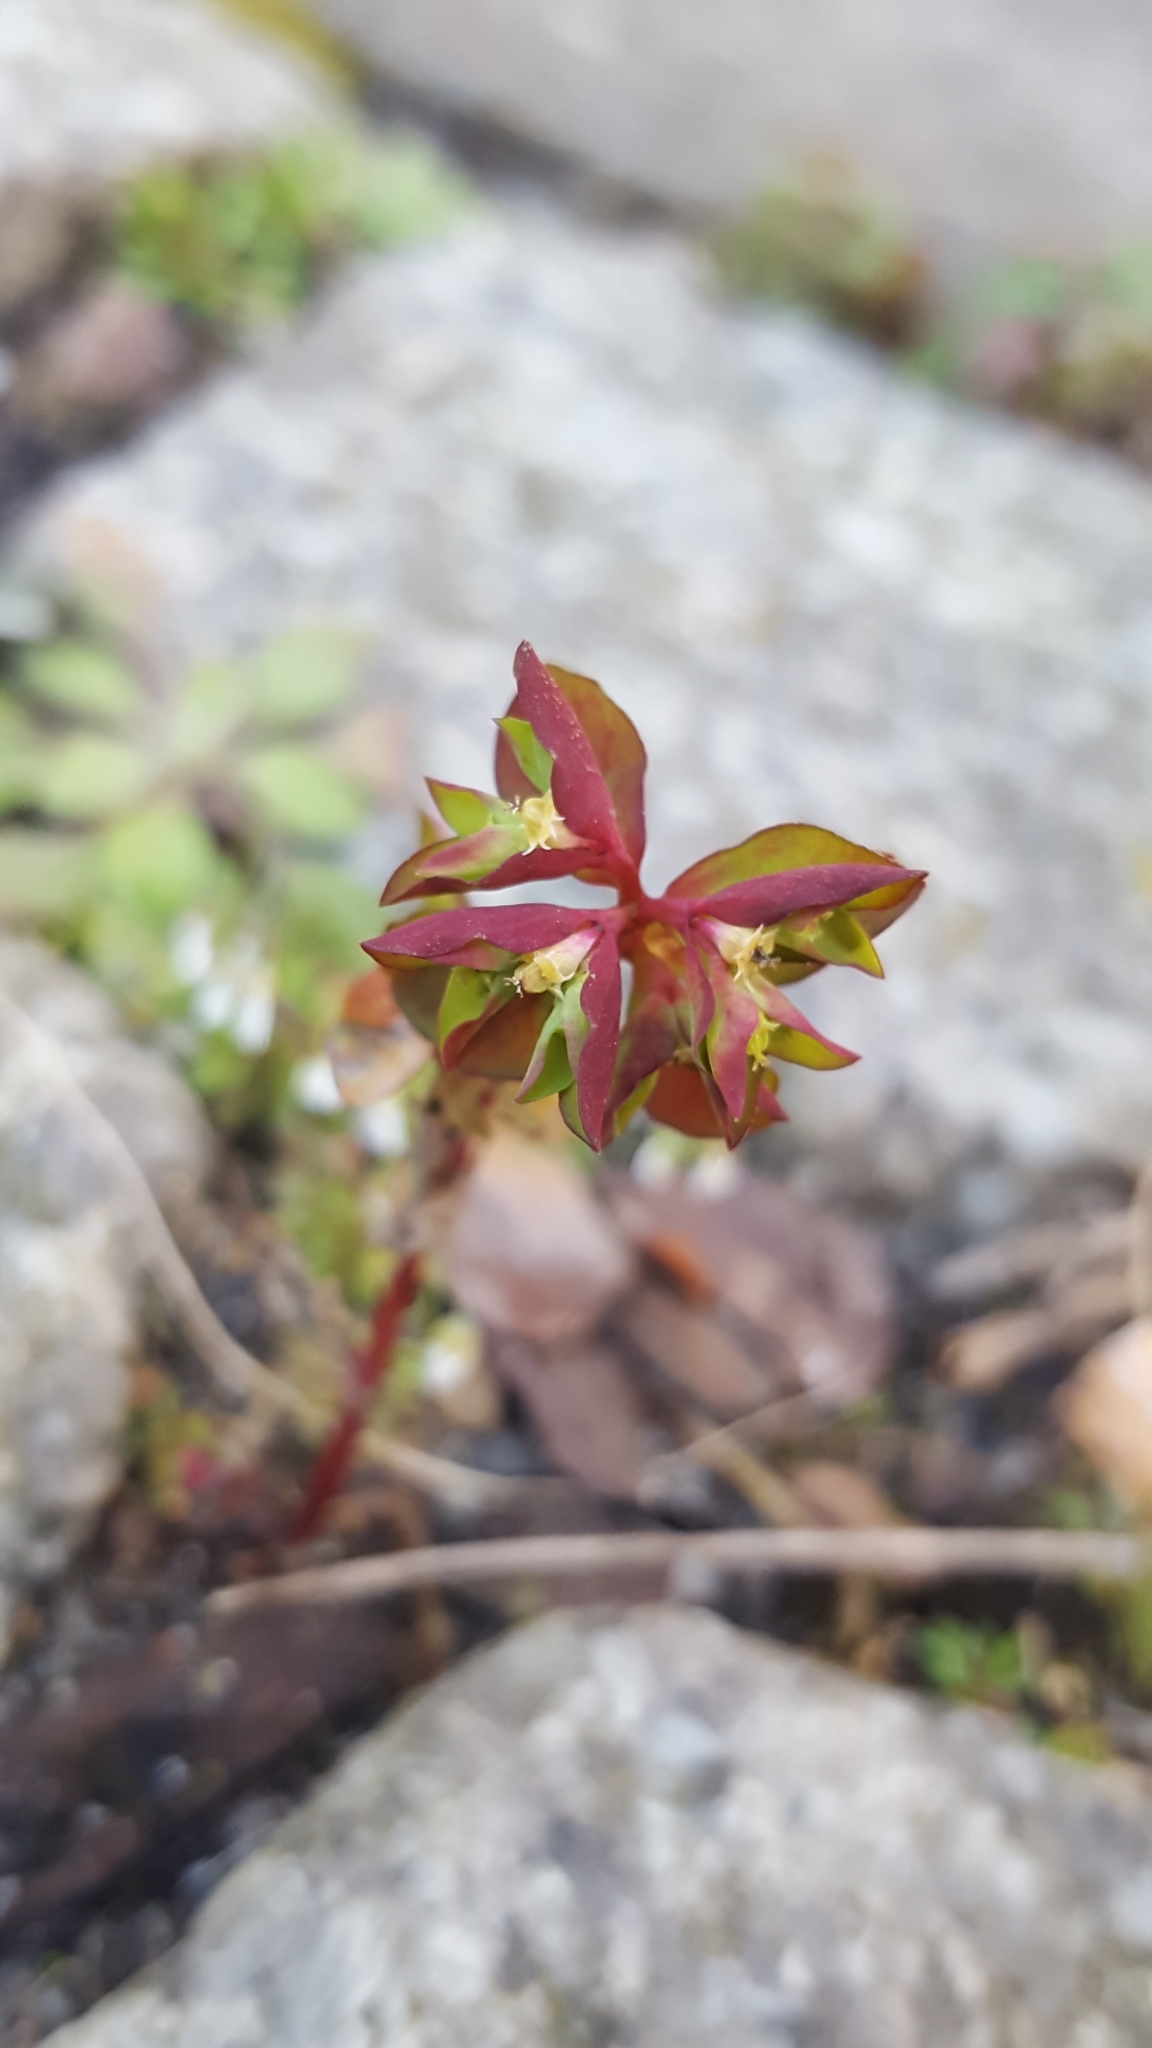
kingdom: Plantae
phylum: Tracheophyta
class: Magnoliopsida
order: Malpighiales
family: Euphorbiaceae
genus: Euphorbia
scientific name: Euphorbia peplus
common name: Petty spurge
